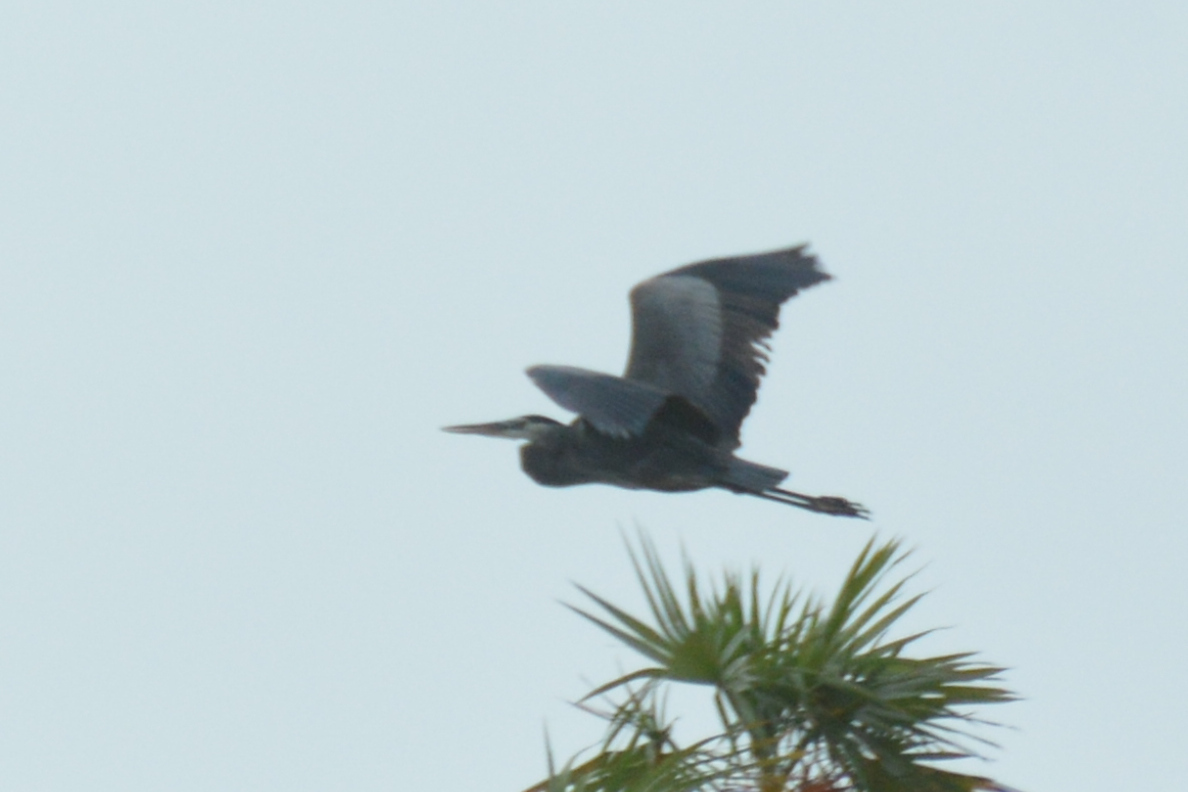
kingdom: Animalia
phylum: Chordata
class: Aves
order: Pelecaniformes
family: Ardeidae
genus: Ardea
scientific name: Ardea herodias
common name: Great blue heron
